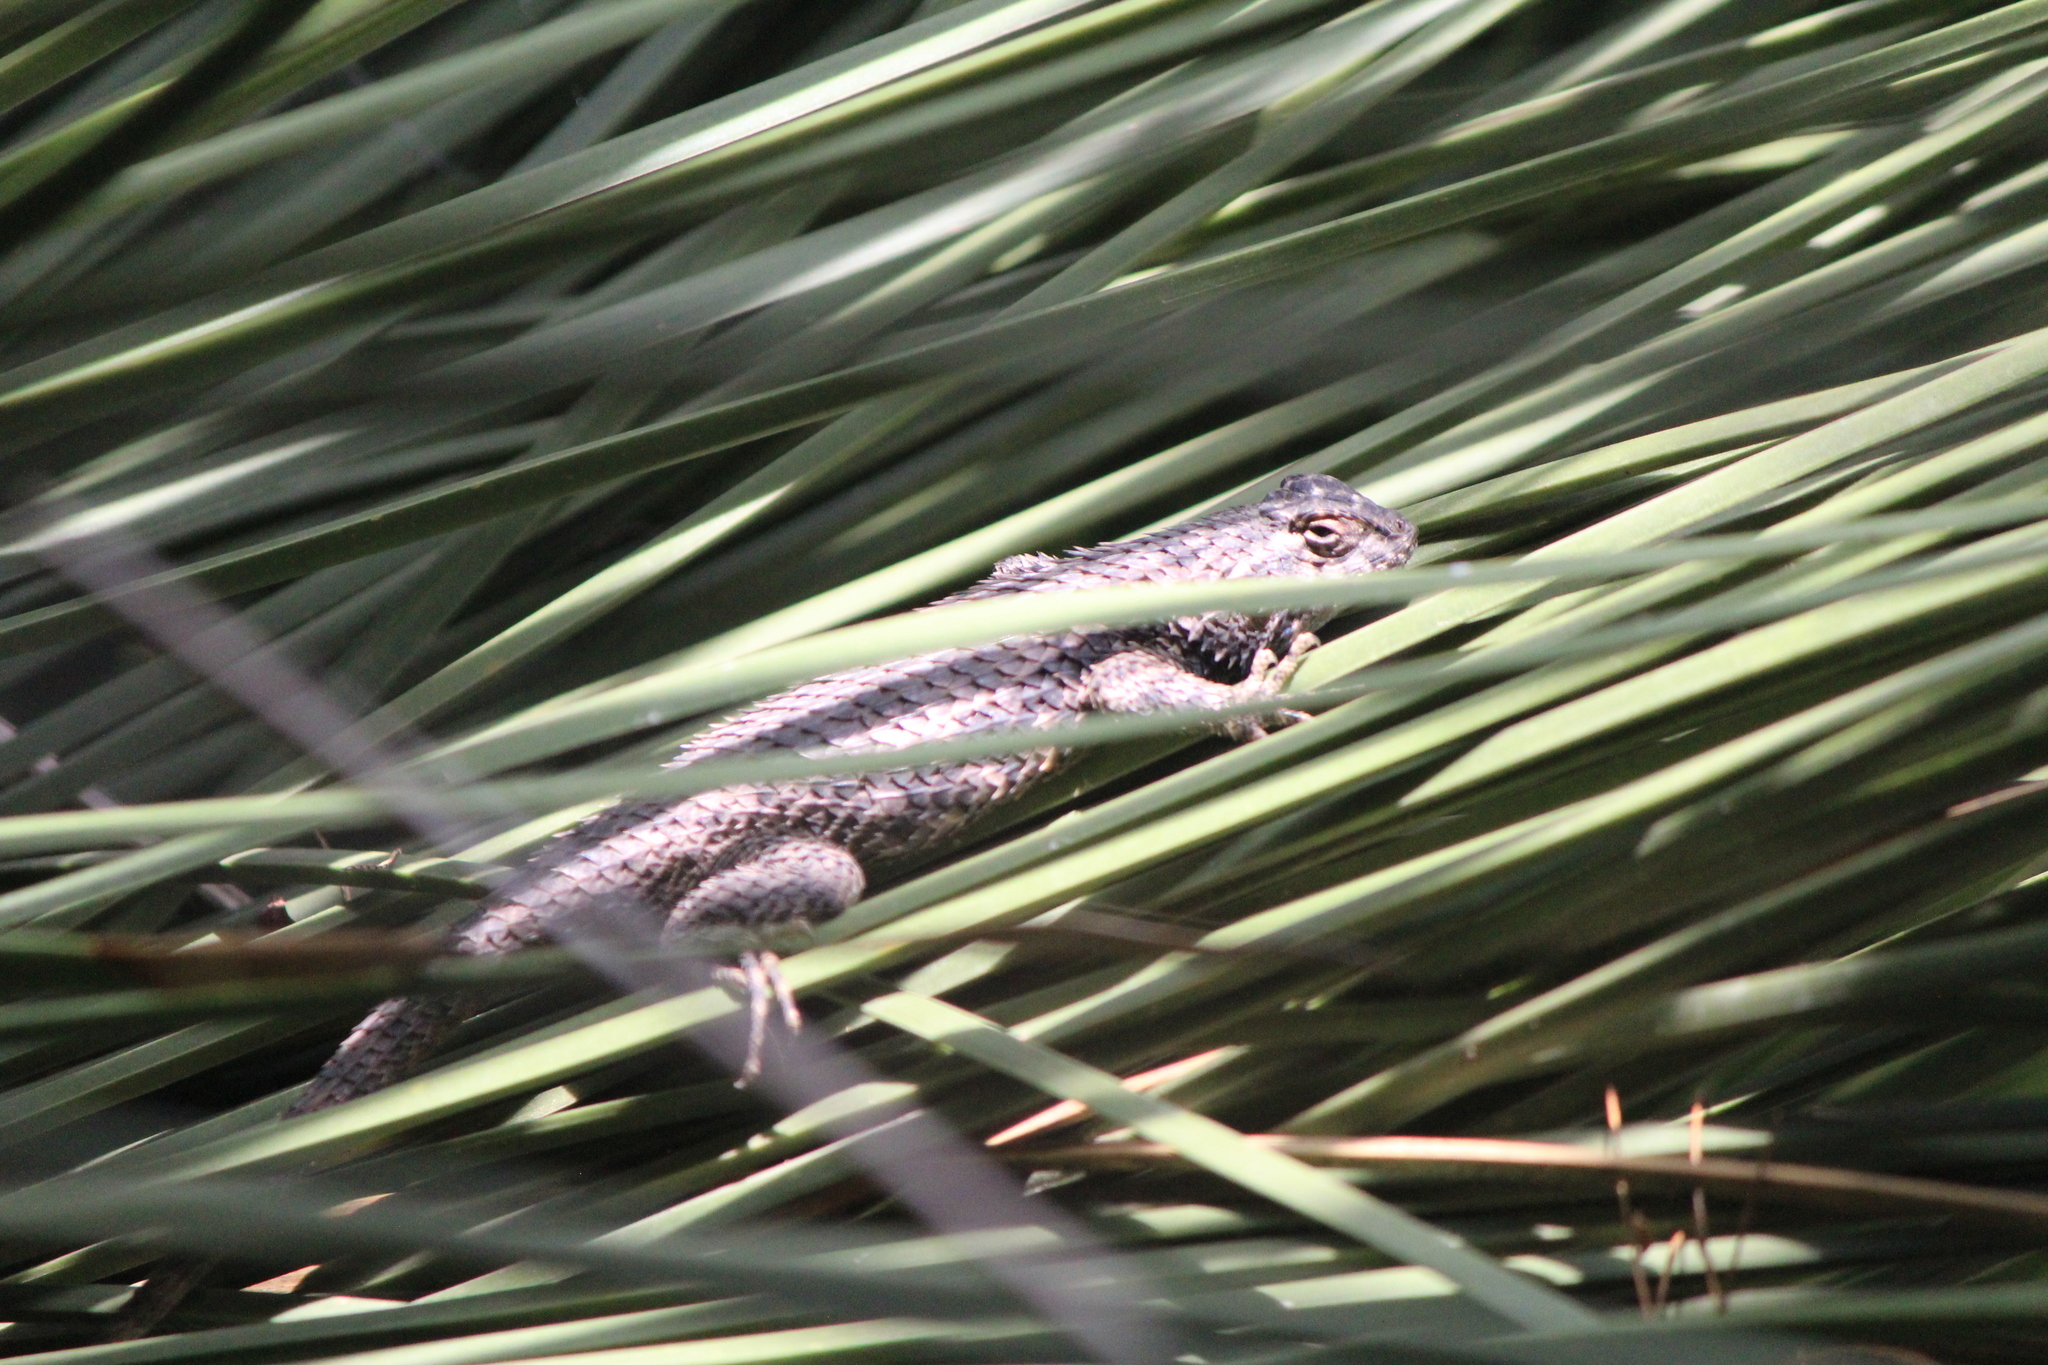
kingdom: Animalia
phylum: Chordata
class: Squamata
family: Phrynosomatidae
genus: Sceloporus
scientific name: Sceloporus spinosus
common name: Blue-spotted spiny lizard [caeruleopunctatus]
